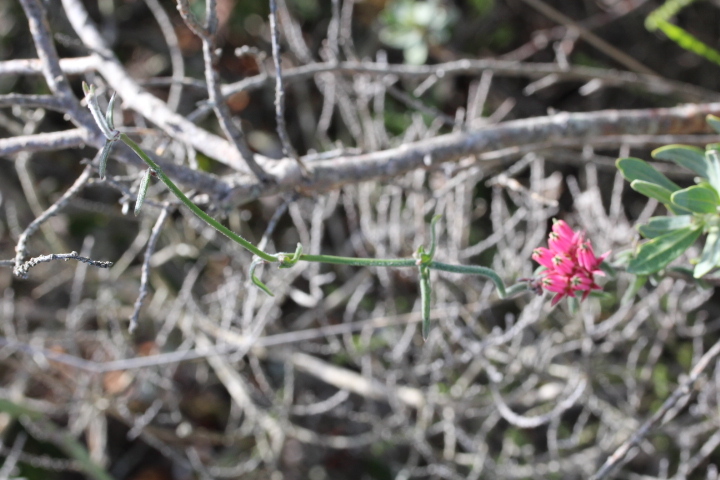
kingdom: Plantae
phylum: Tracheophyta
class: Magnoliopsida
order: Gentianales
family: Apocynaceae
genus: Microloma
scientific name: Microloma sagittatum
